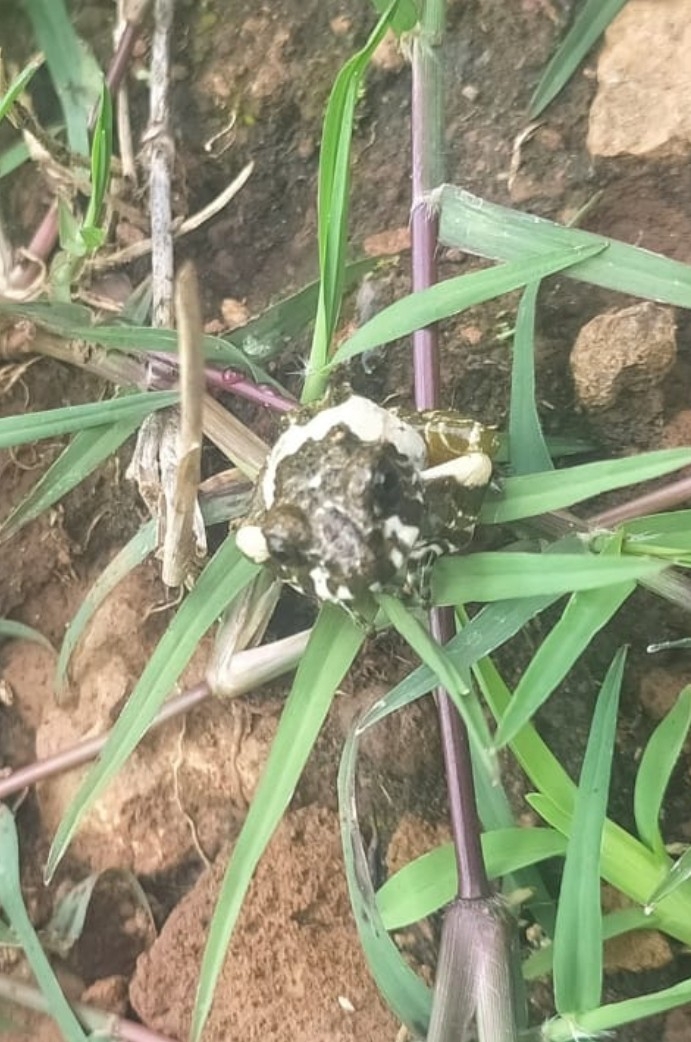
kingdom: Animalia
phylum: Chordata
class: Amphibia
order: Anura
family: Craugastoridae
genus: Craugastor
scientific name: Craugastor augusti
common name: Barking frog
